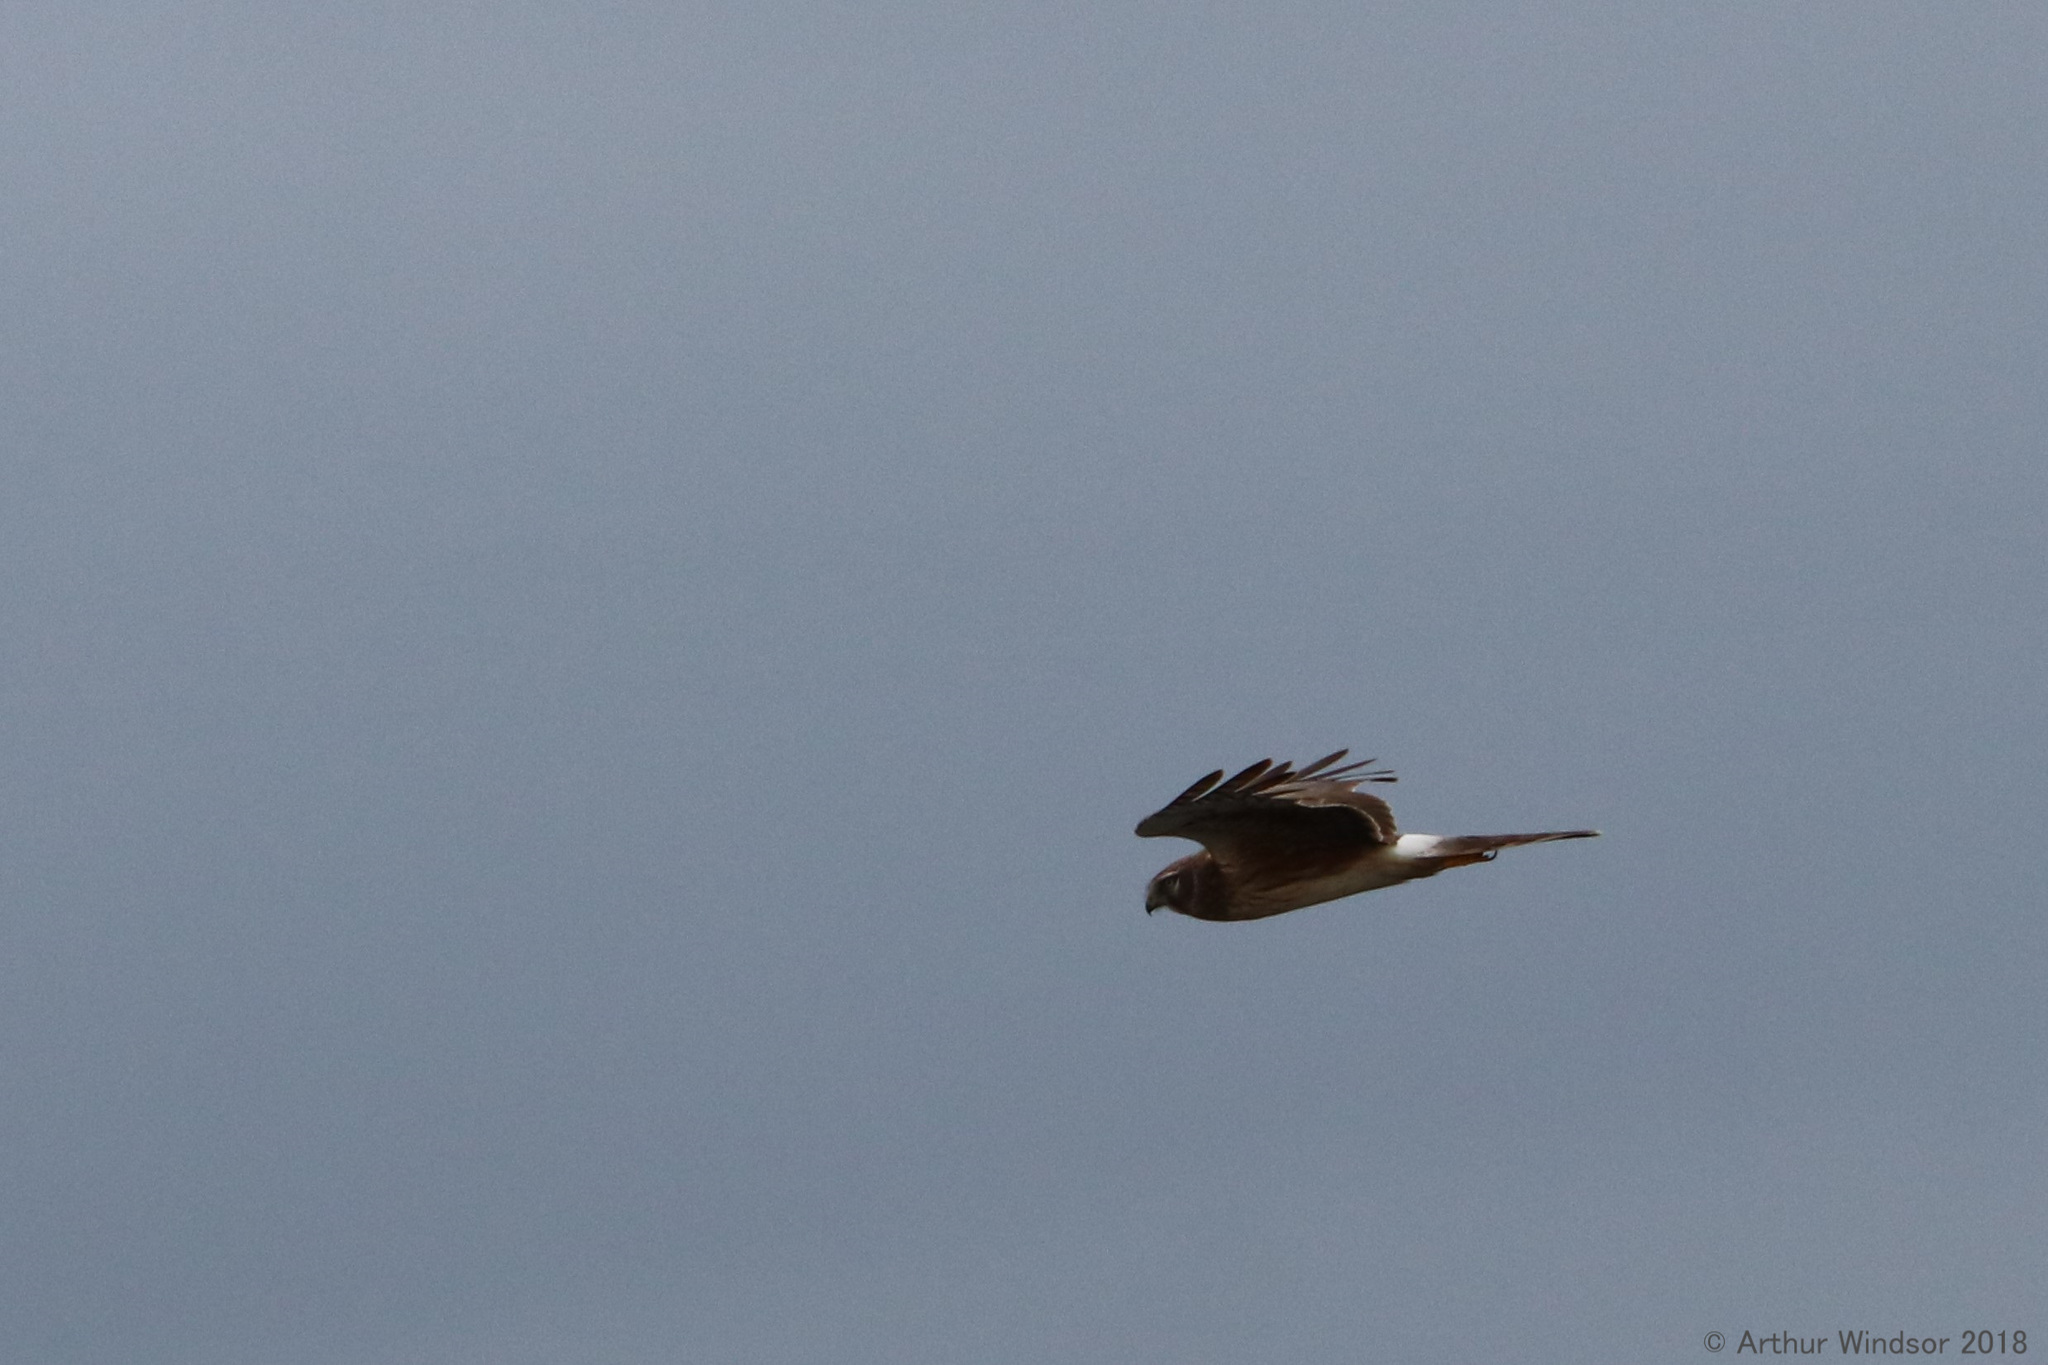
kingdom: Animalia
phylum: Chordata
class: Aves
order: Accipitriformes
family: Accipitridae
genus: Circus
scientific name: Circus cyaneus
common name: Hen harrier
